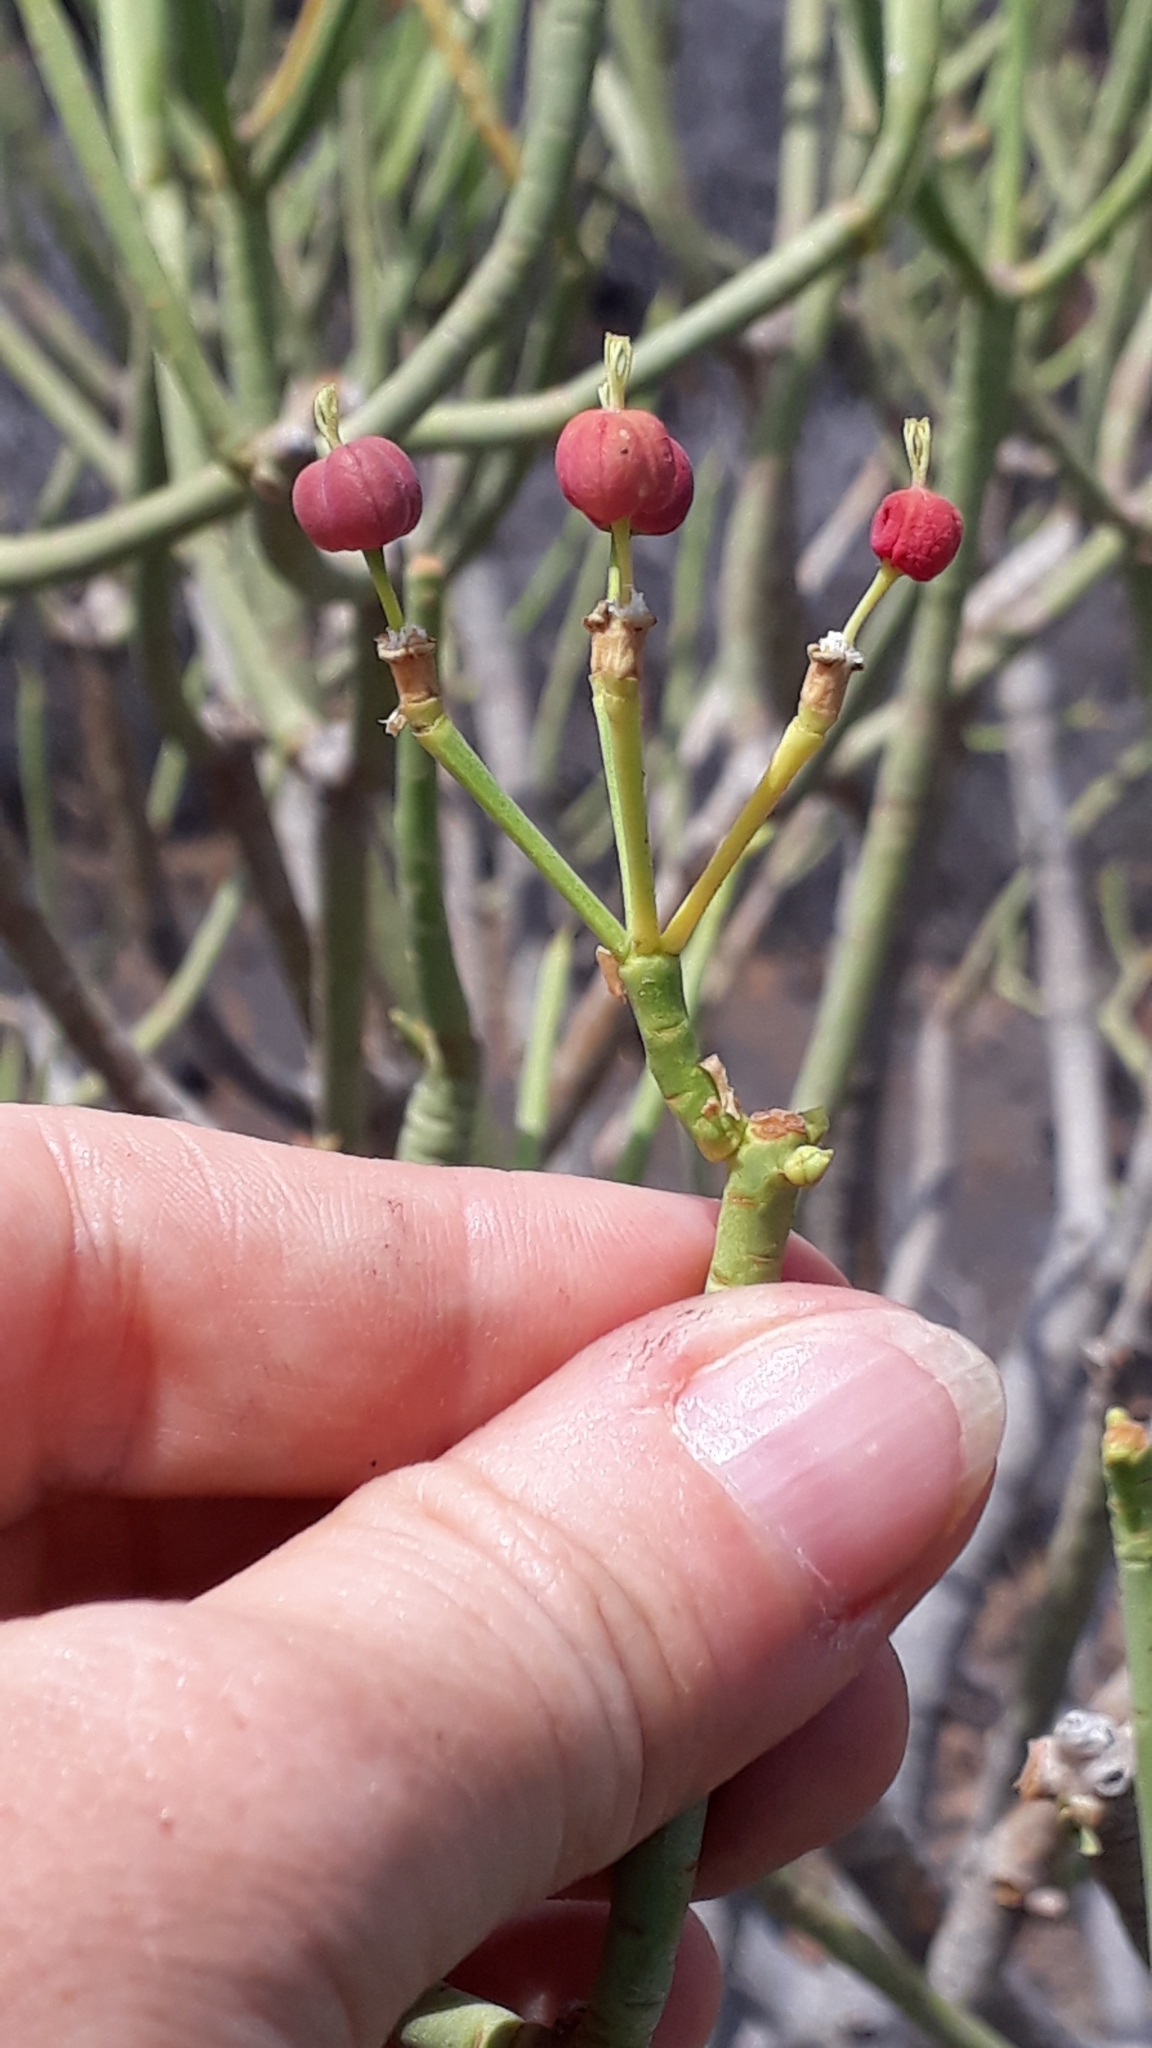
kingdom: Plantae
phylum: Tracheophyta
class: Magnoliopsida
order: Malpighiales
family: Euphorbiaceae
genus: Euphorbia
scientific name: Euphorbia lamarckii
